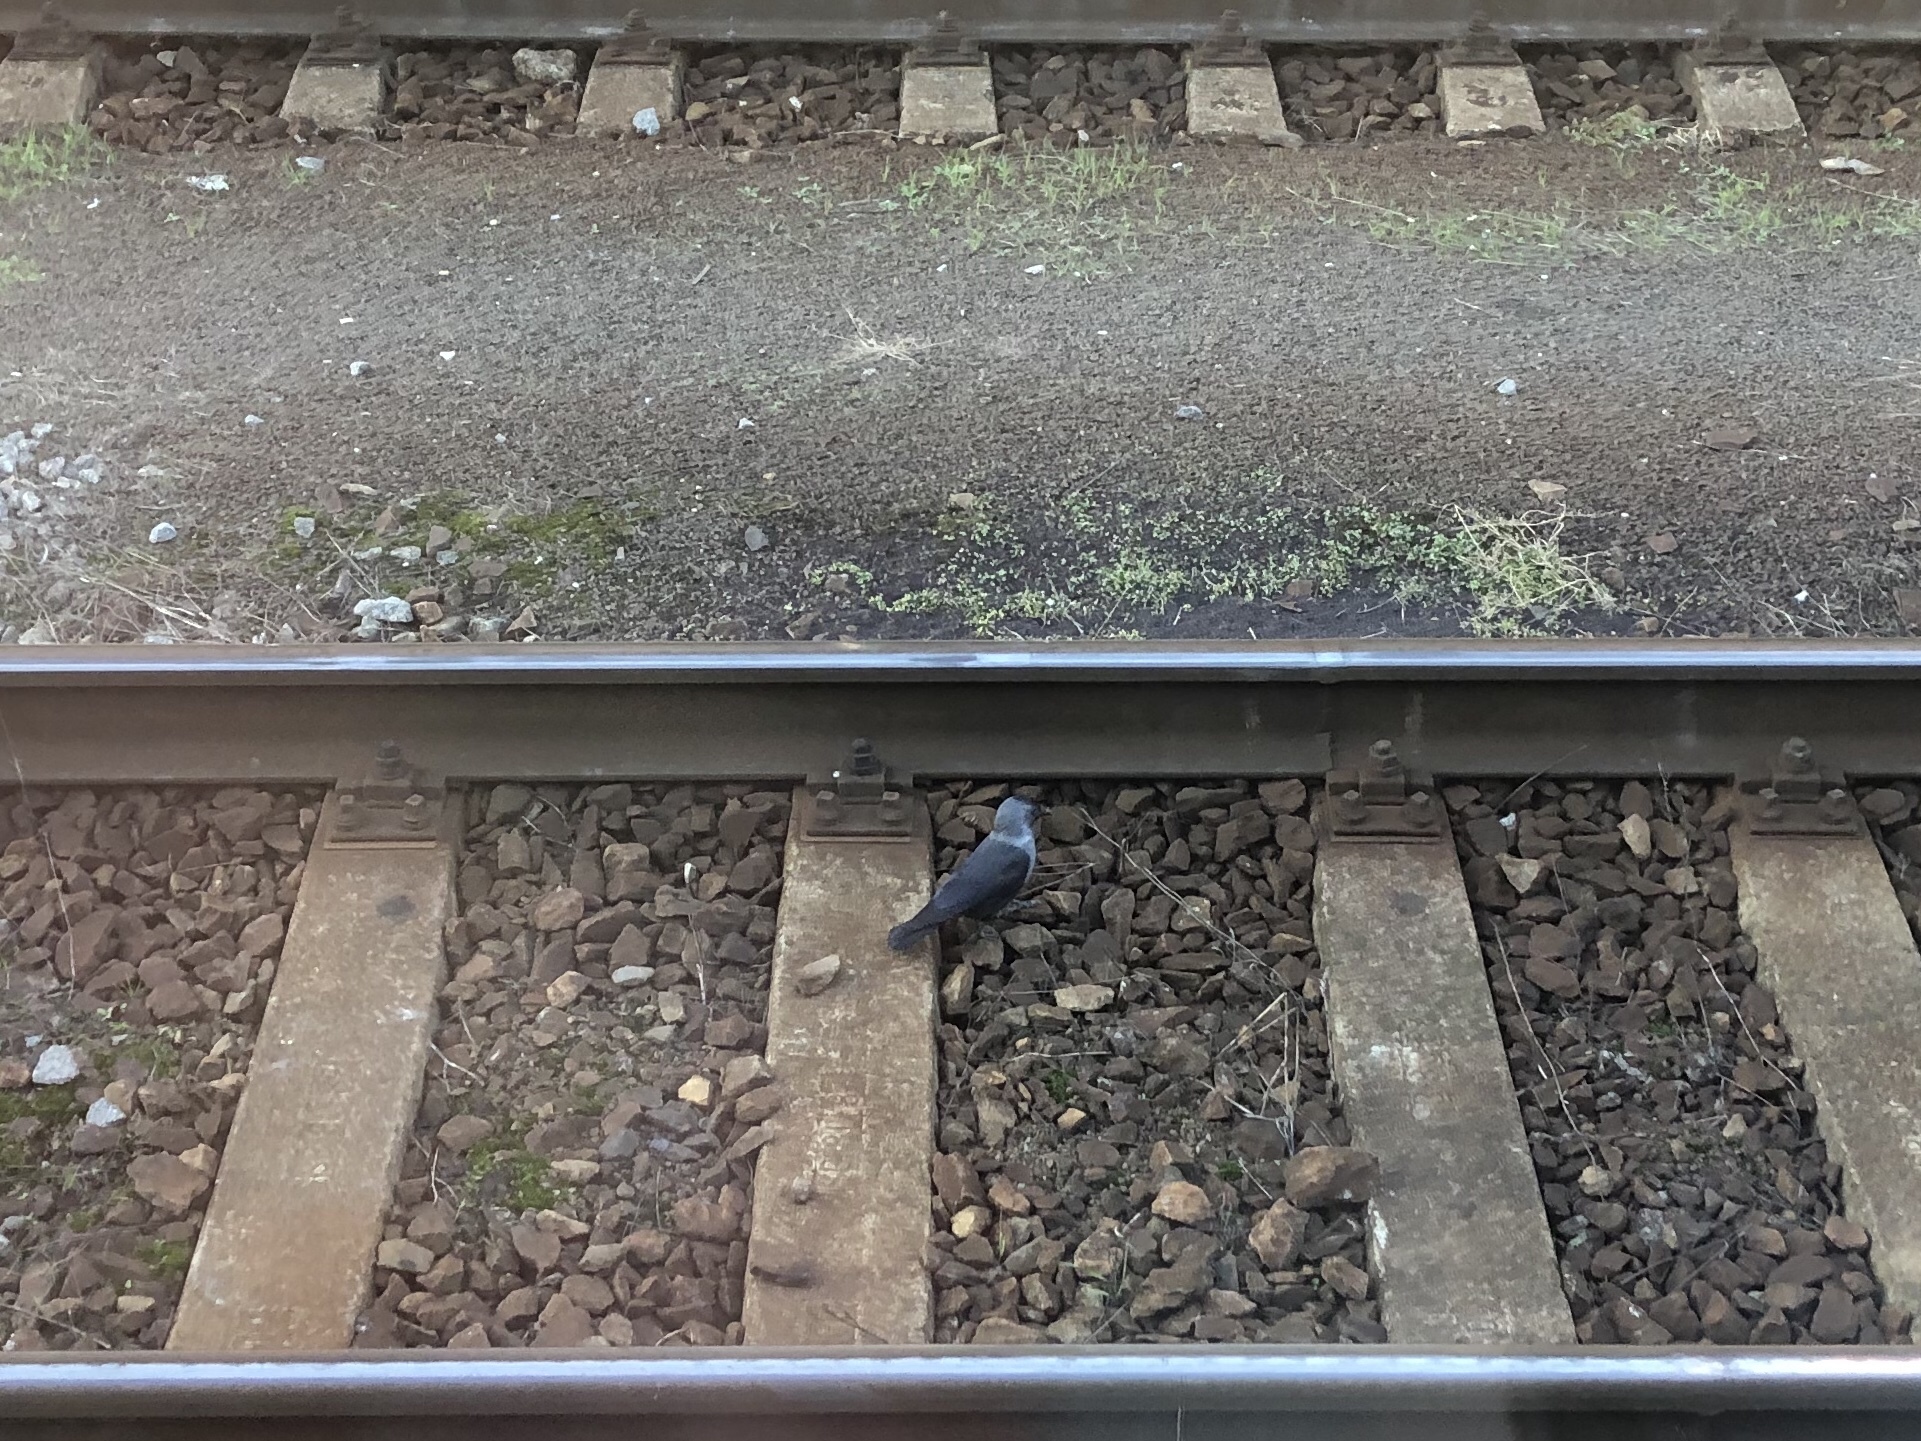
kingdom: Animalia
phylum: Chordata
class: Aves
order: Passeriformes
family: Corvidae
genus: Coloeus
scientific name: Coloeus monedula
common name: Western jackdaw
